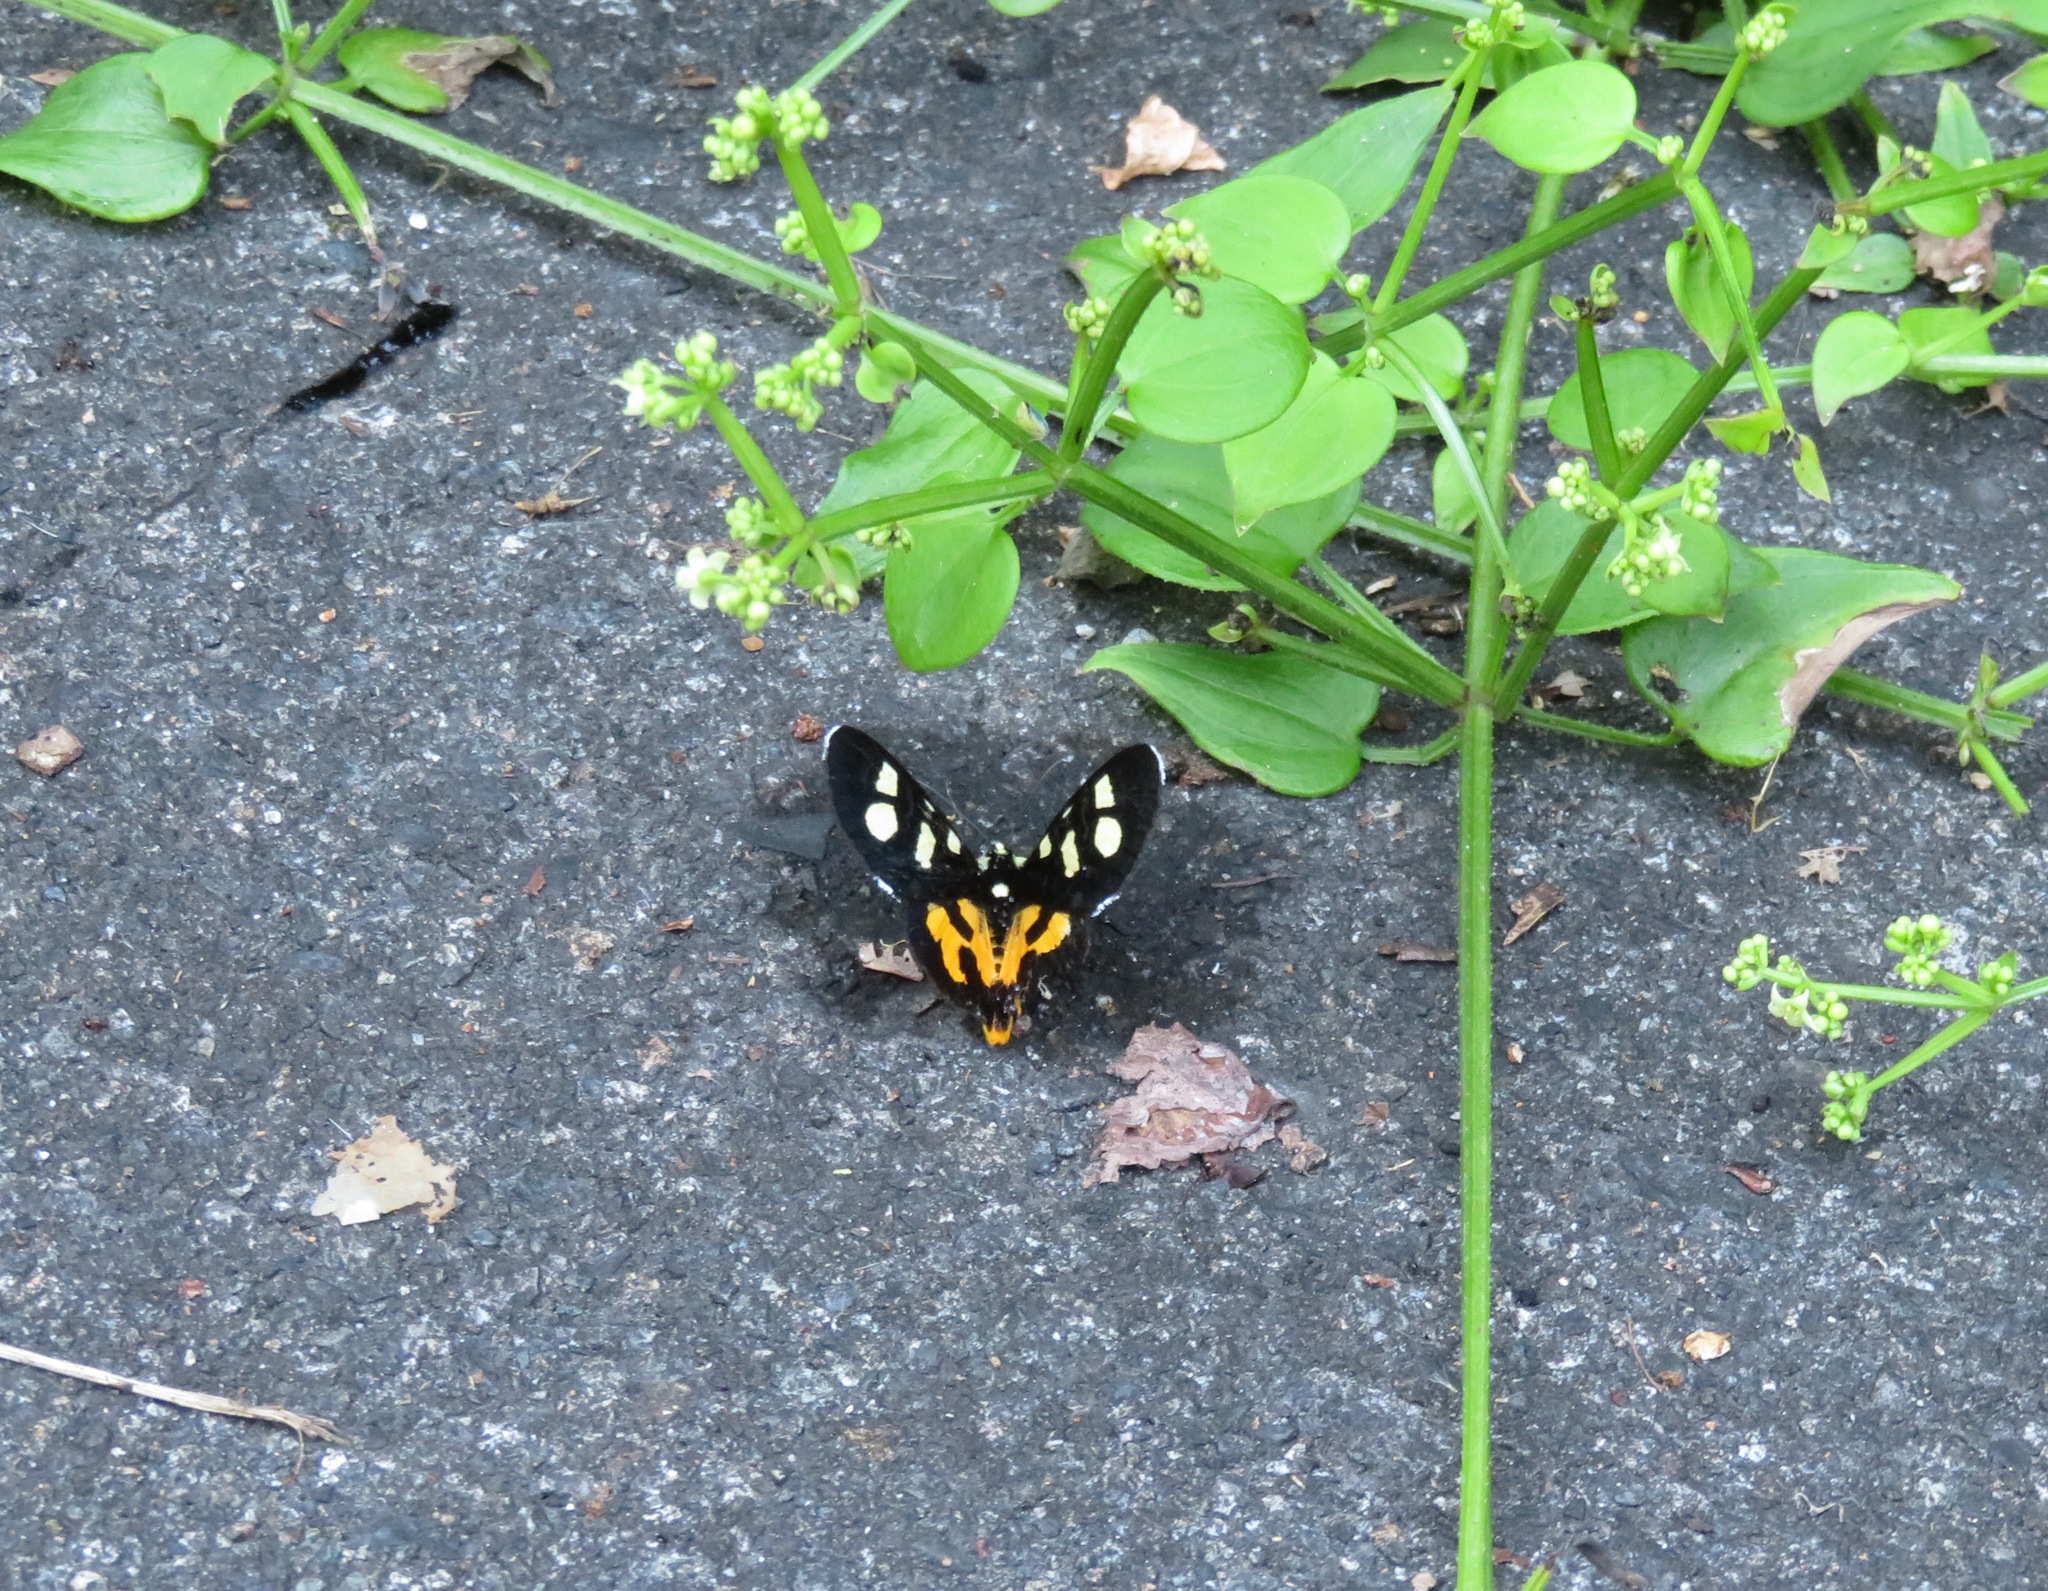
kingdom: Animalia
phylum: Arthropoda
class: Insecta
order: Lepidoptera
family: Noctuidae
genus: Mimeusemia
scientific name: Mimeusemia persimilis
